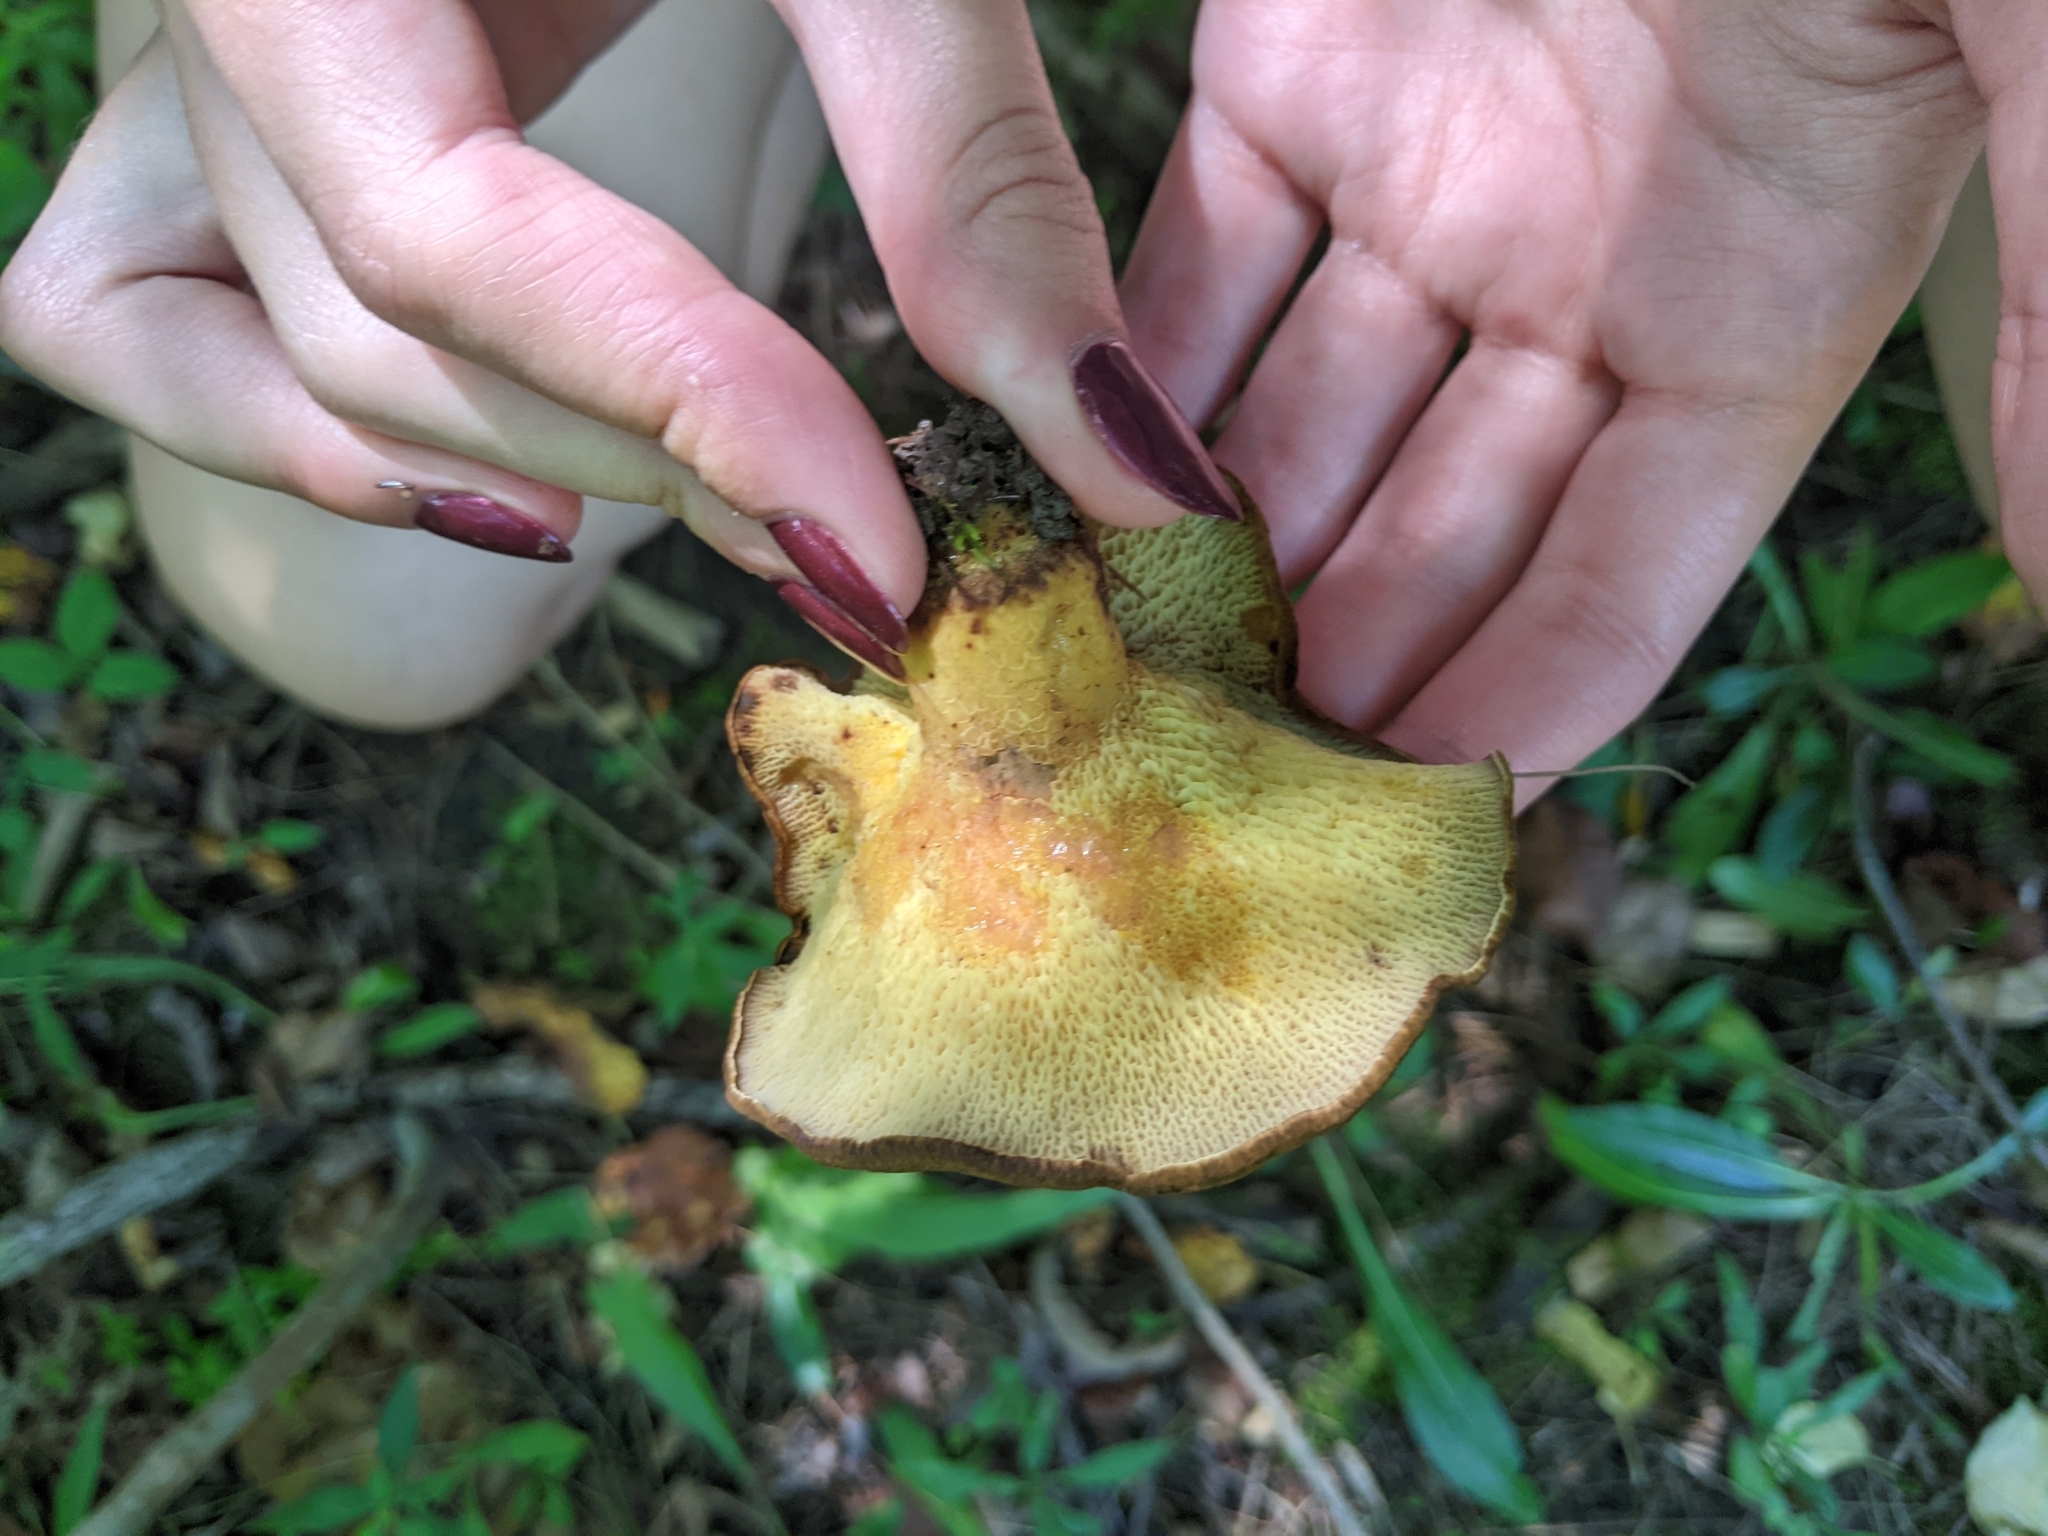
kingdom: Fungi
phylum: Basidiomycota
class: Agaricomycetes
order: Boletales
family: Boletinellaceae
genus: Boletinellus
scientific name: Boletinellus merulioides
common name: Ash tree bolete
